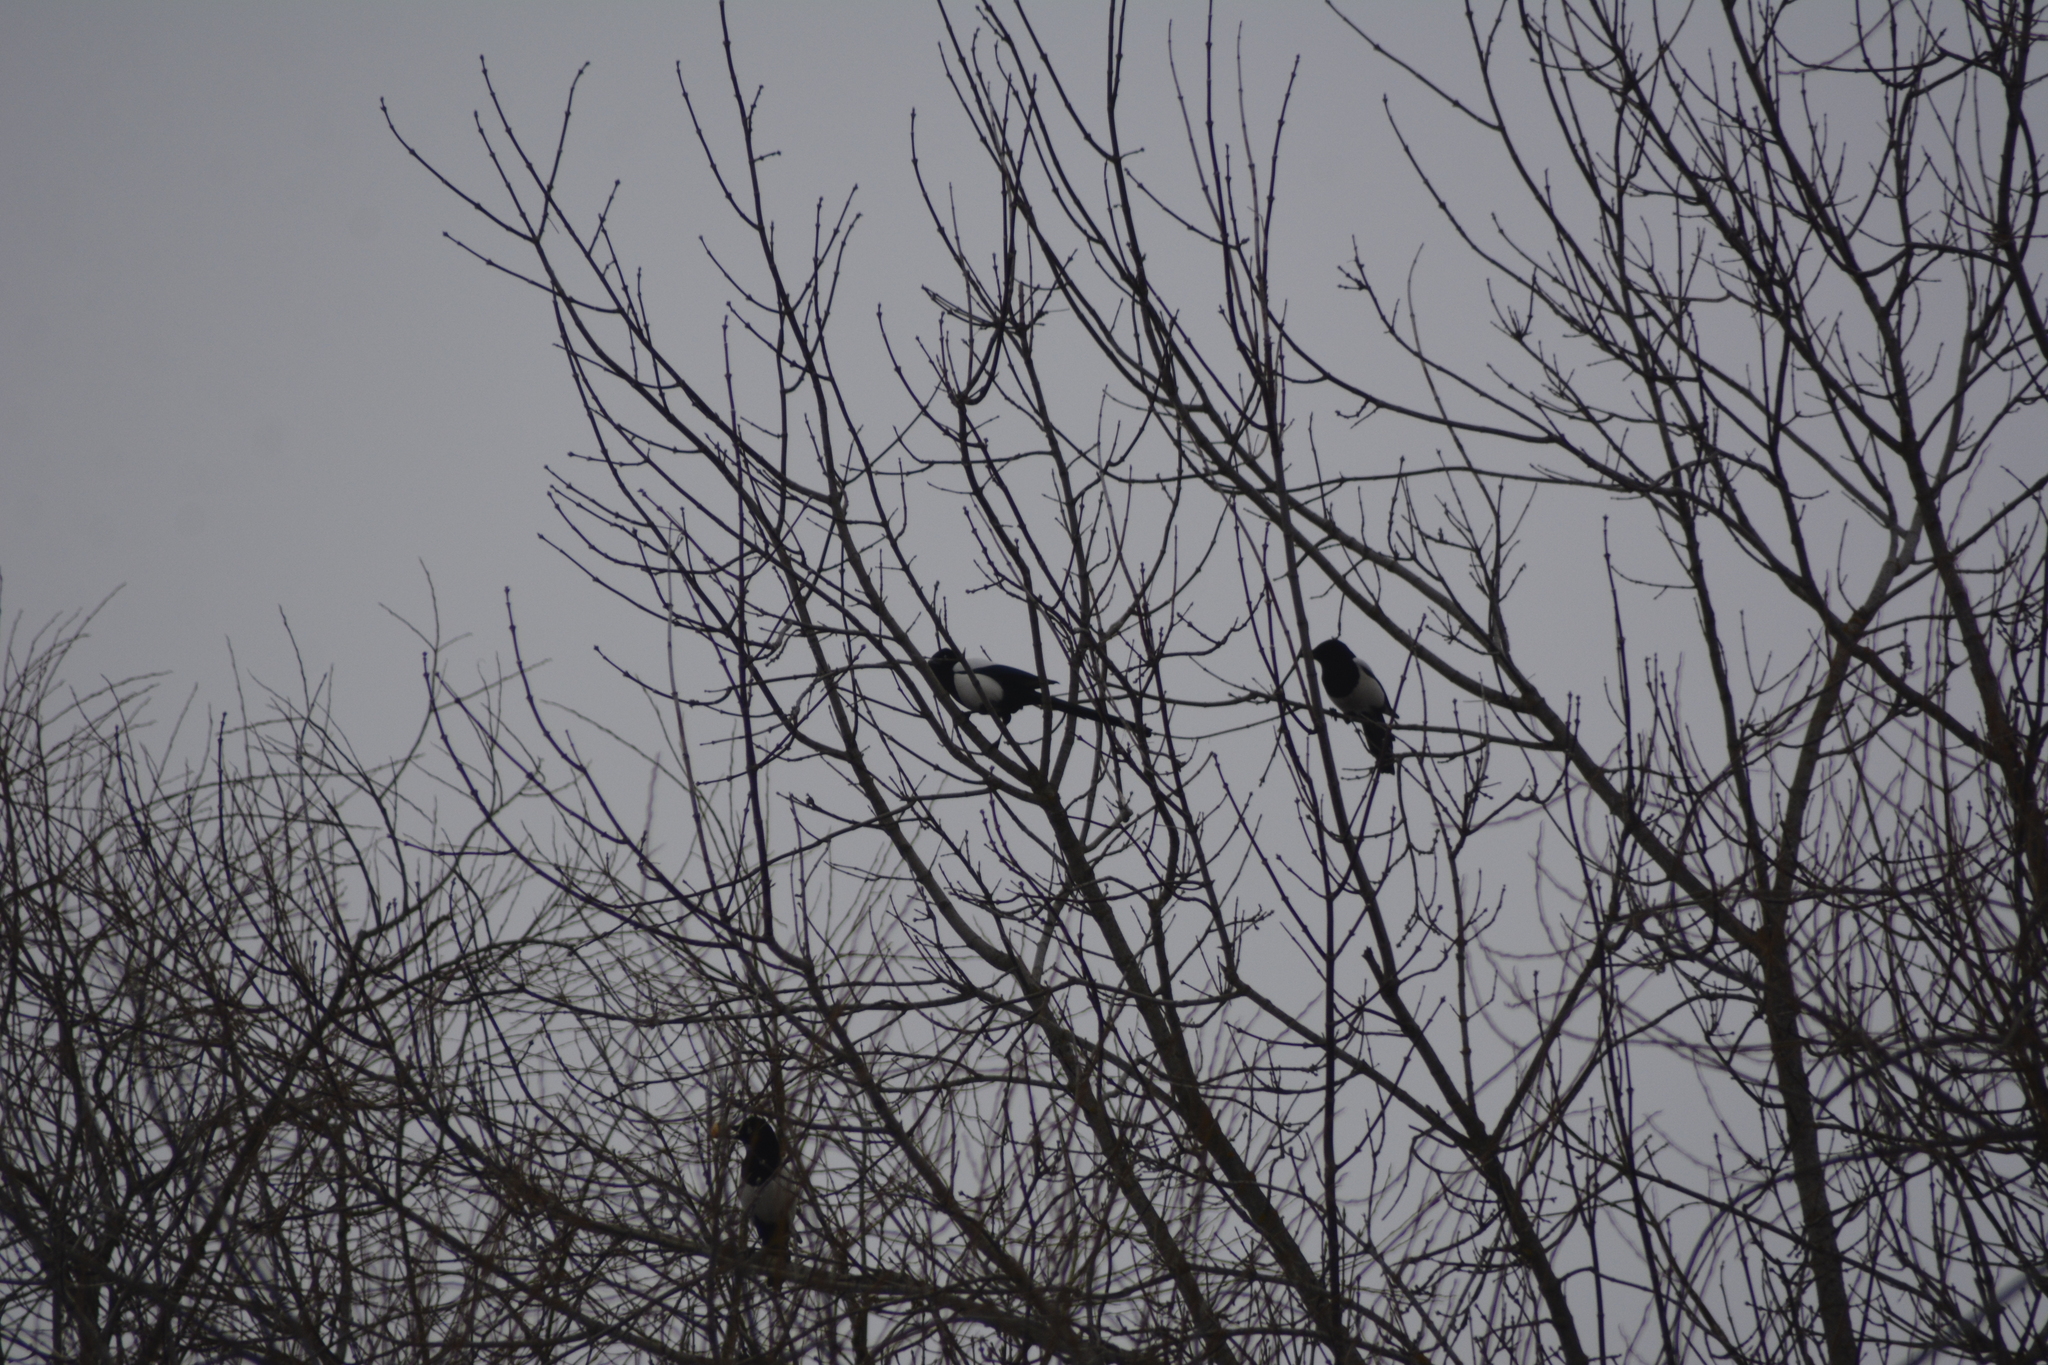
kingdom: Animalia
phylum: Chordata
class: Aves
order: Passeriformes
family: Corvidae
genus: Pica
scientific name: Pica pica
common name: Eurasian magpie
